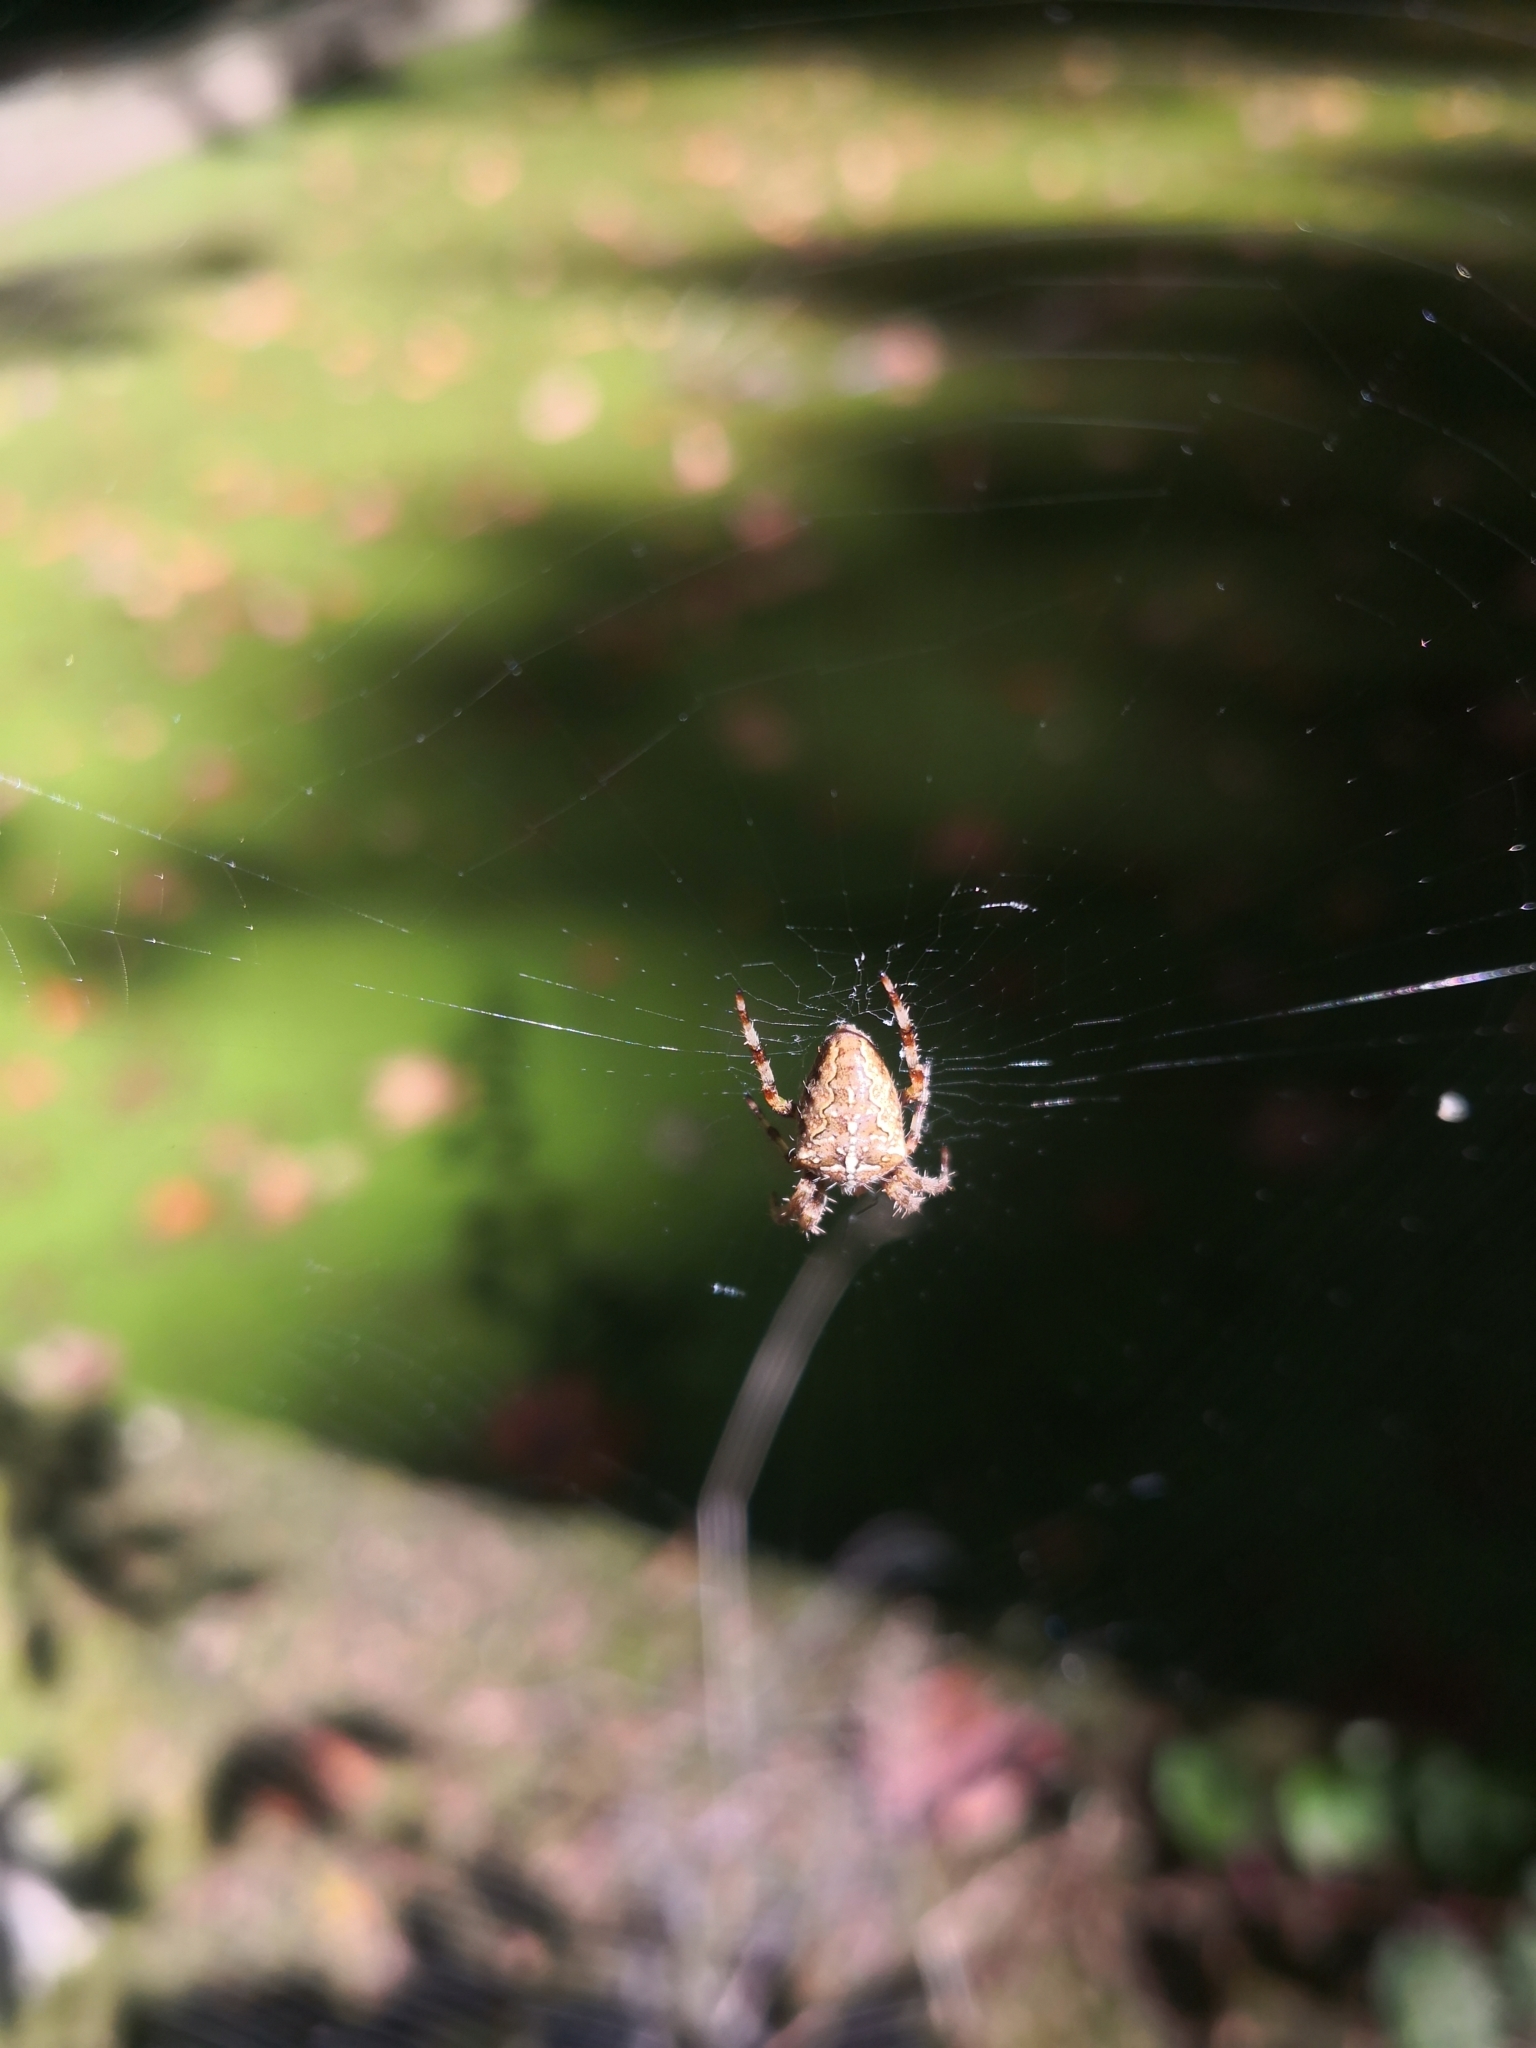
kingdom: Animalia
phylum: Arthropoda
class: Arachnida
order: Araneae
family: Araneidae
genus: Araneus
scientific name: Araneus diadematus
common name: Cross orbweaver
